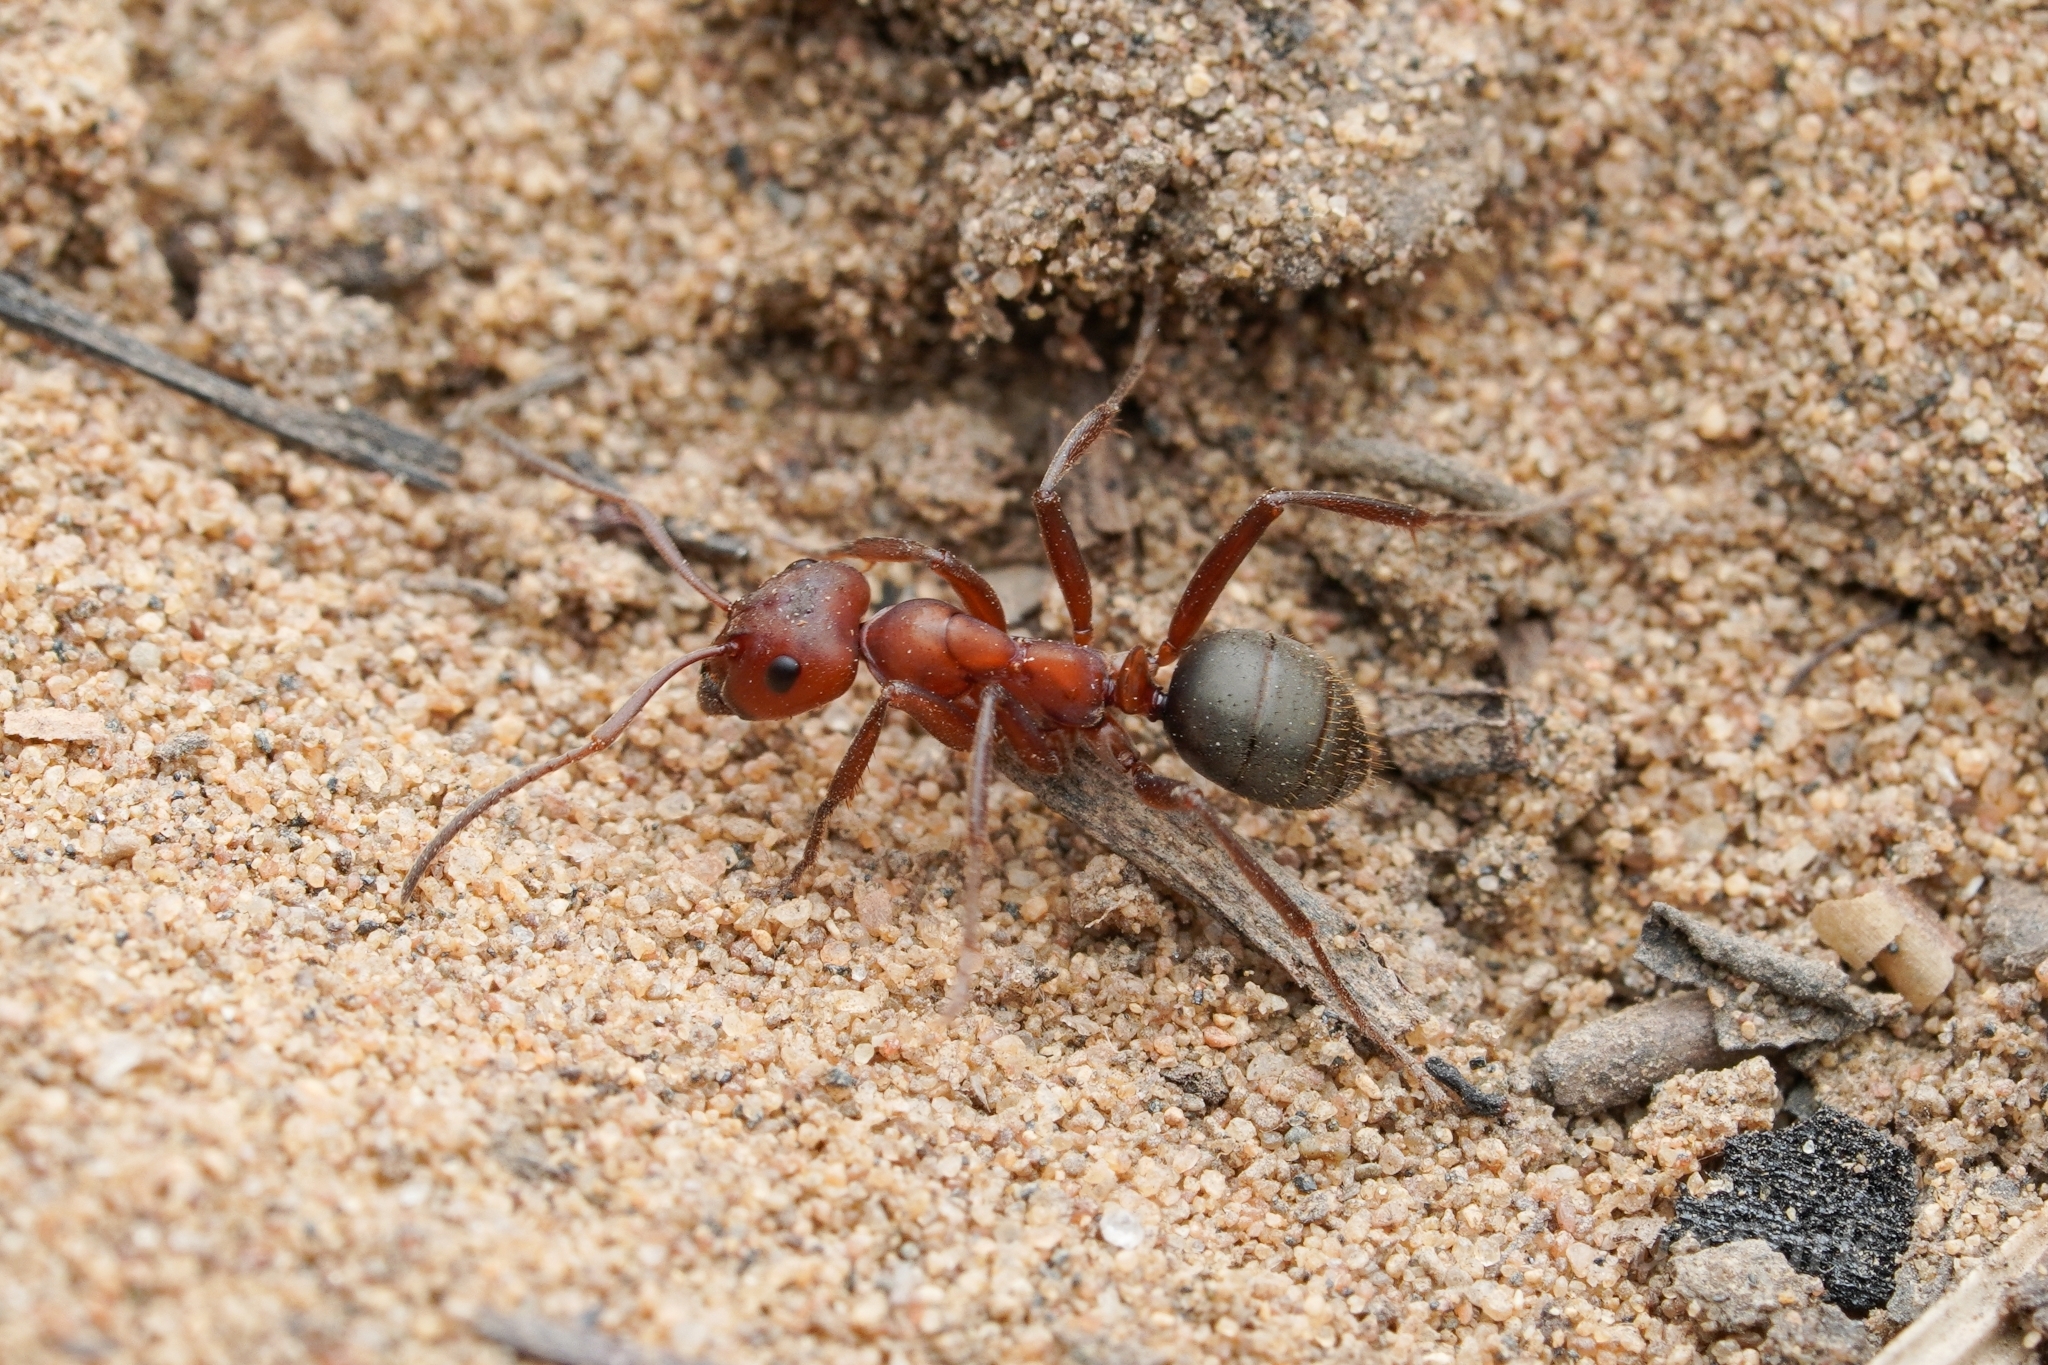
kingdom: Animalia
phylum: Arthropoda
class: Insecta
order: Hymenoptera
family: Formicidae
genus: Formica
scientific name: Formica pergandei
